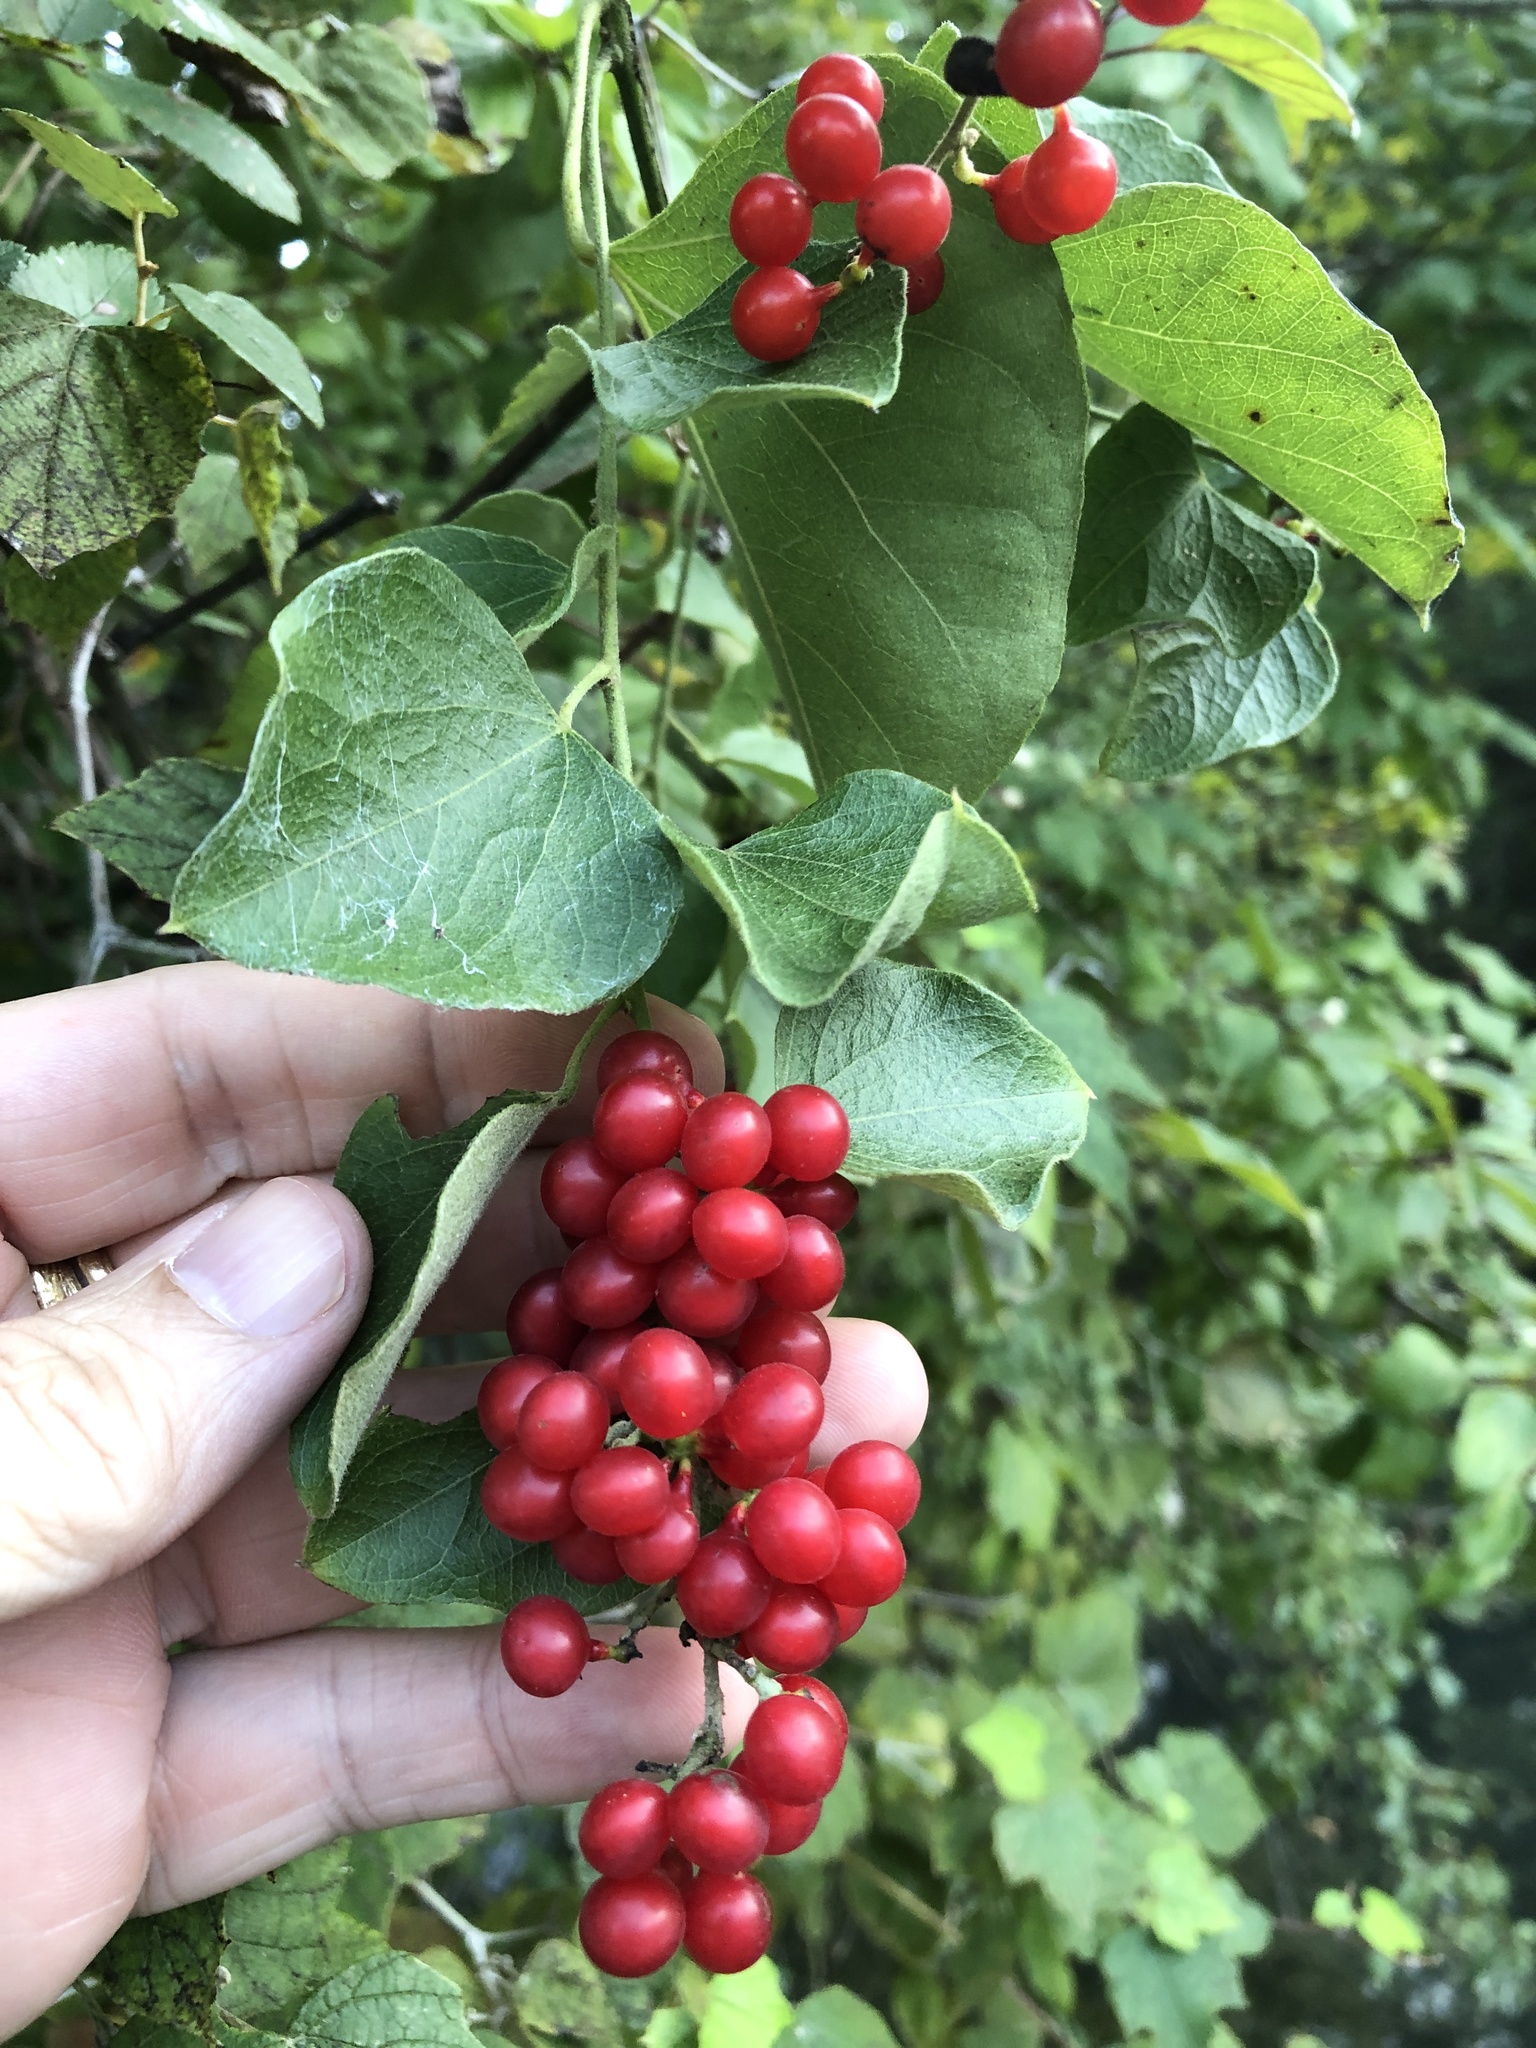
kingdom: Plantae
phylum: Tracheophyta
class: Magnoliopsida
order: Ranunculales
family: Menispermaceae
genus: Cocculus
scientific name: Cocculus carolinus
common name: Carolina moonseed
